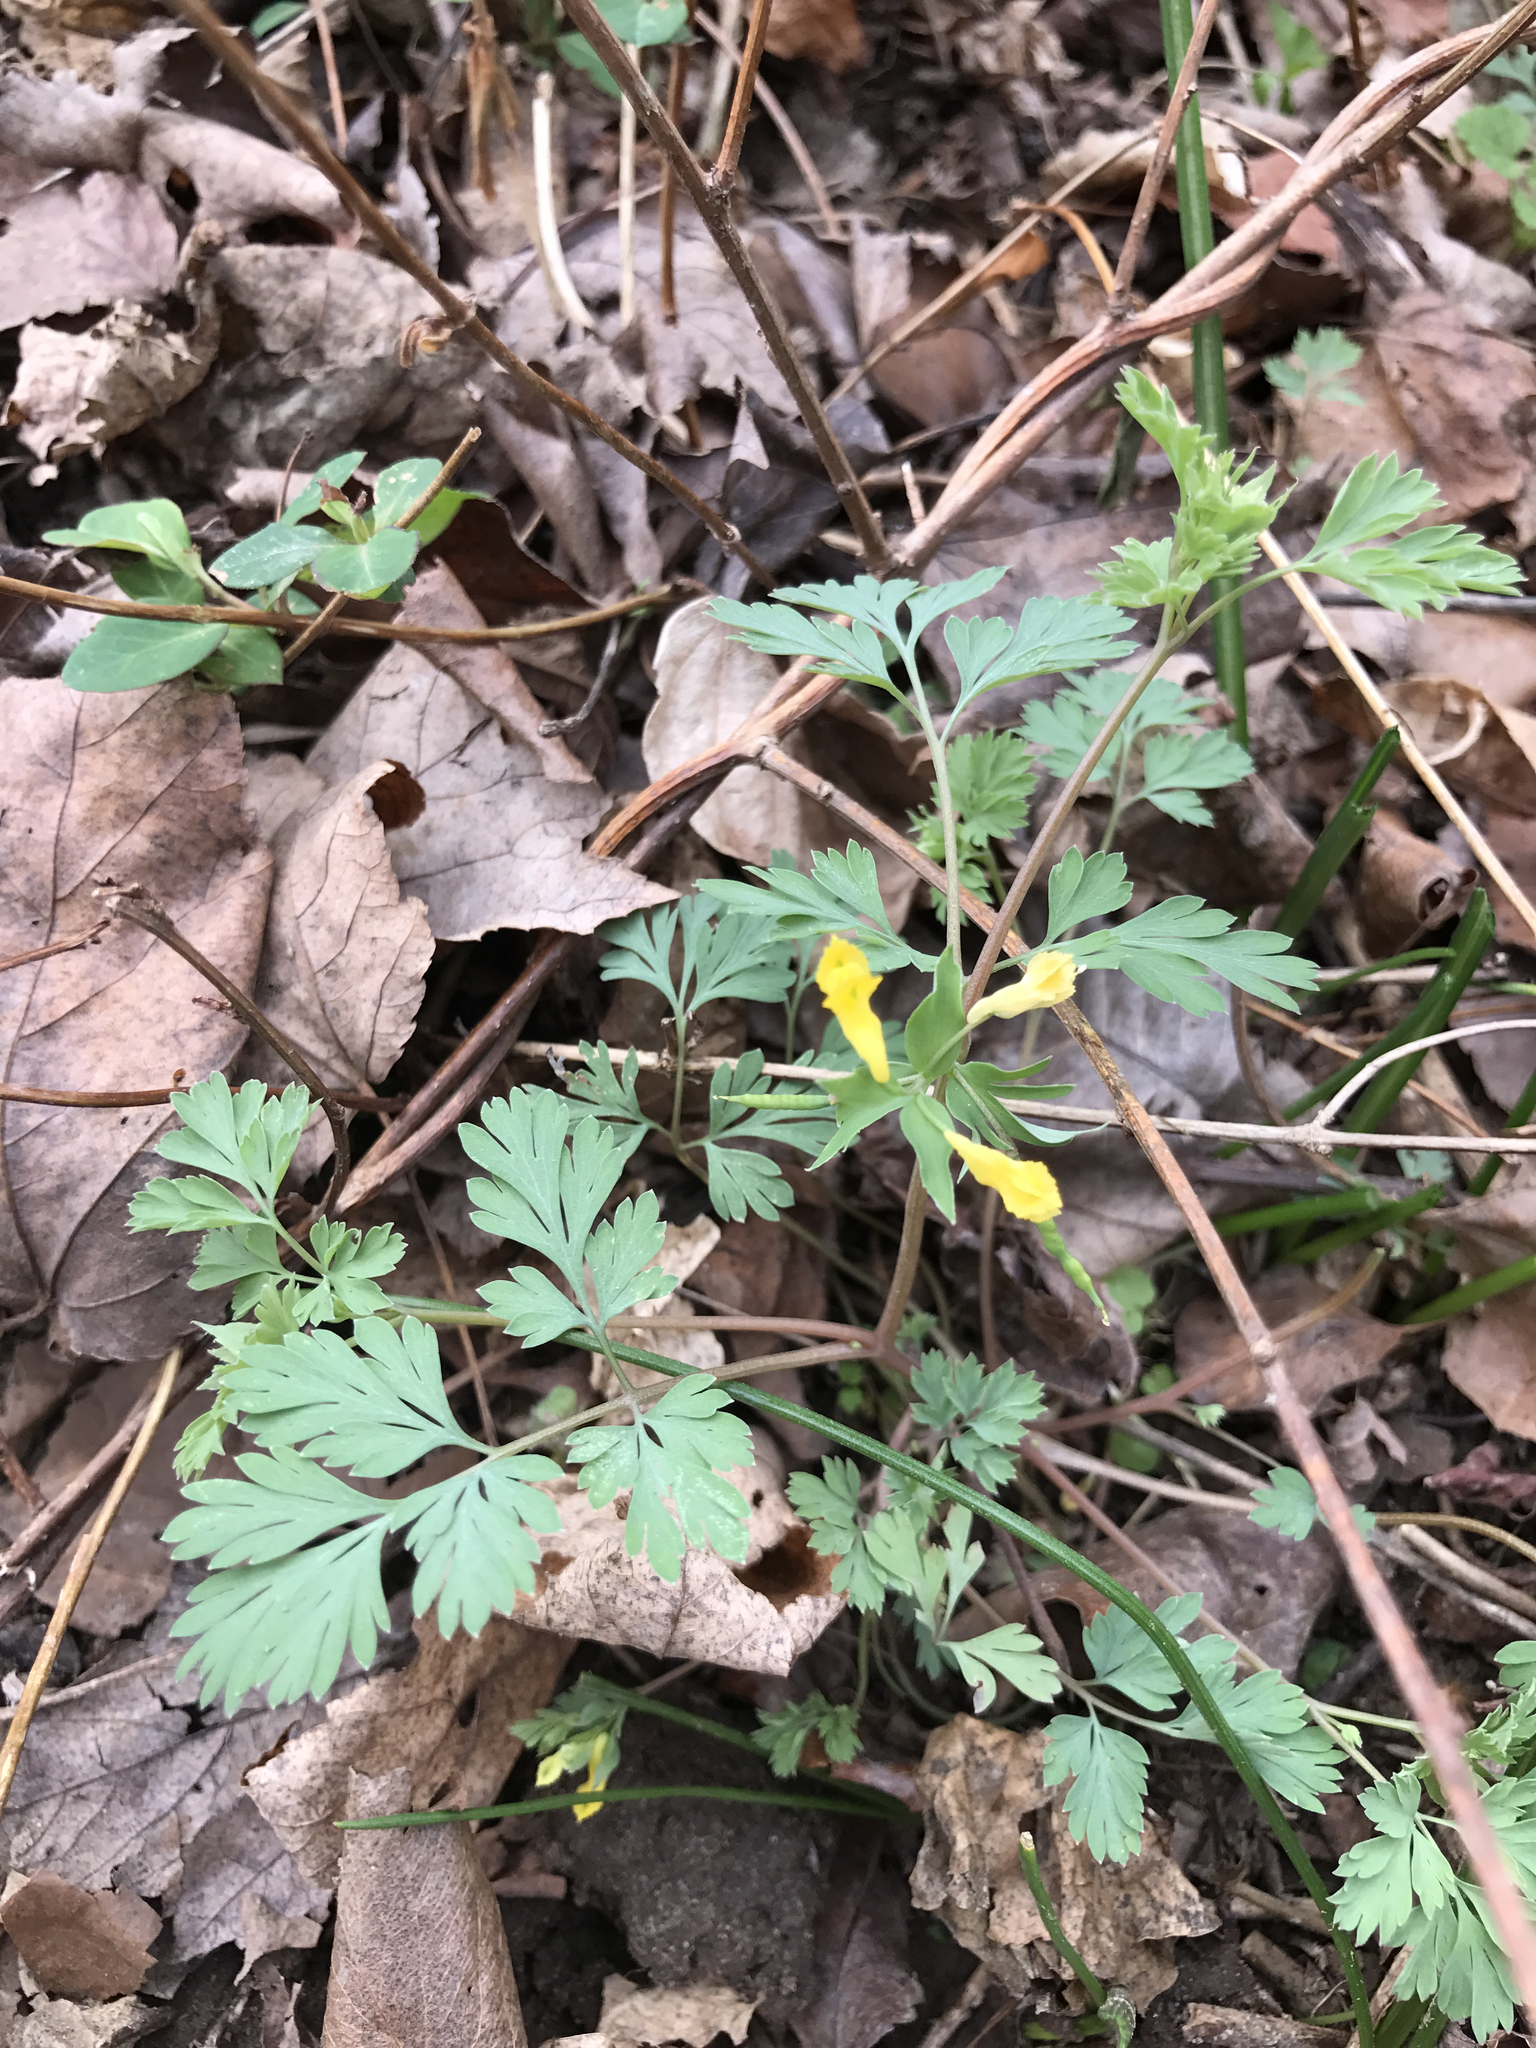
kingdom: Plantae
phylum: Tracheophyta
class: Magnoliopsida
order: Ranunculales
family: Papaveraceae
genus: Corydalis
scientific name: Corydalis flavula
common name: Yellow corydalis
